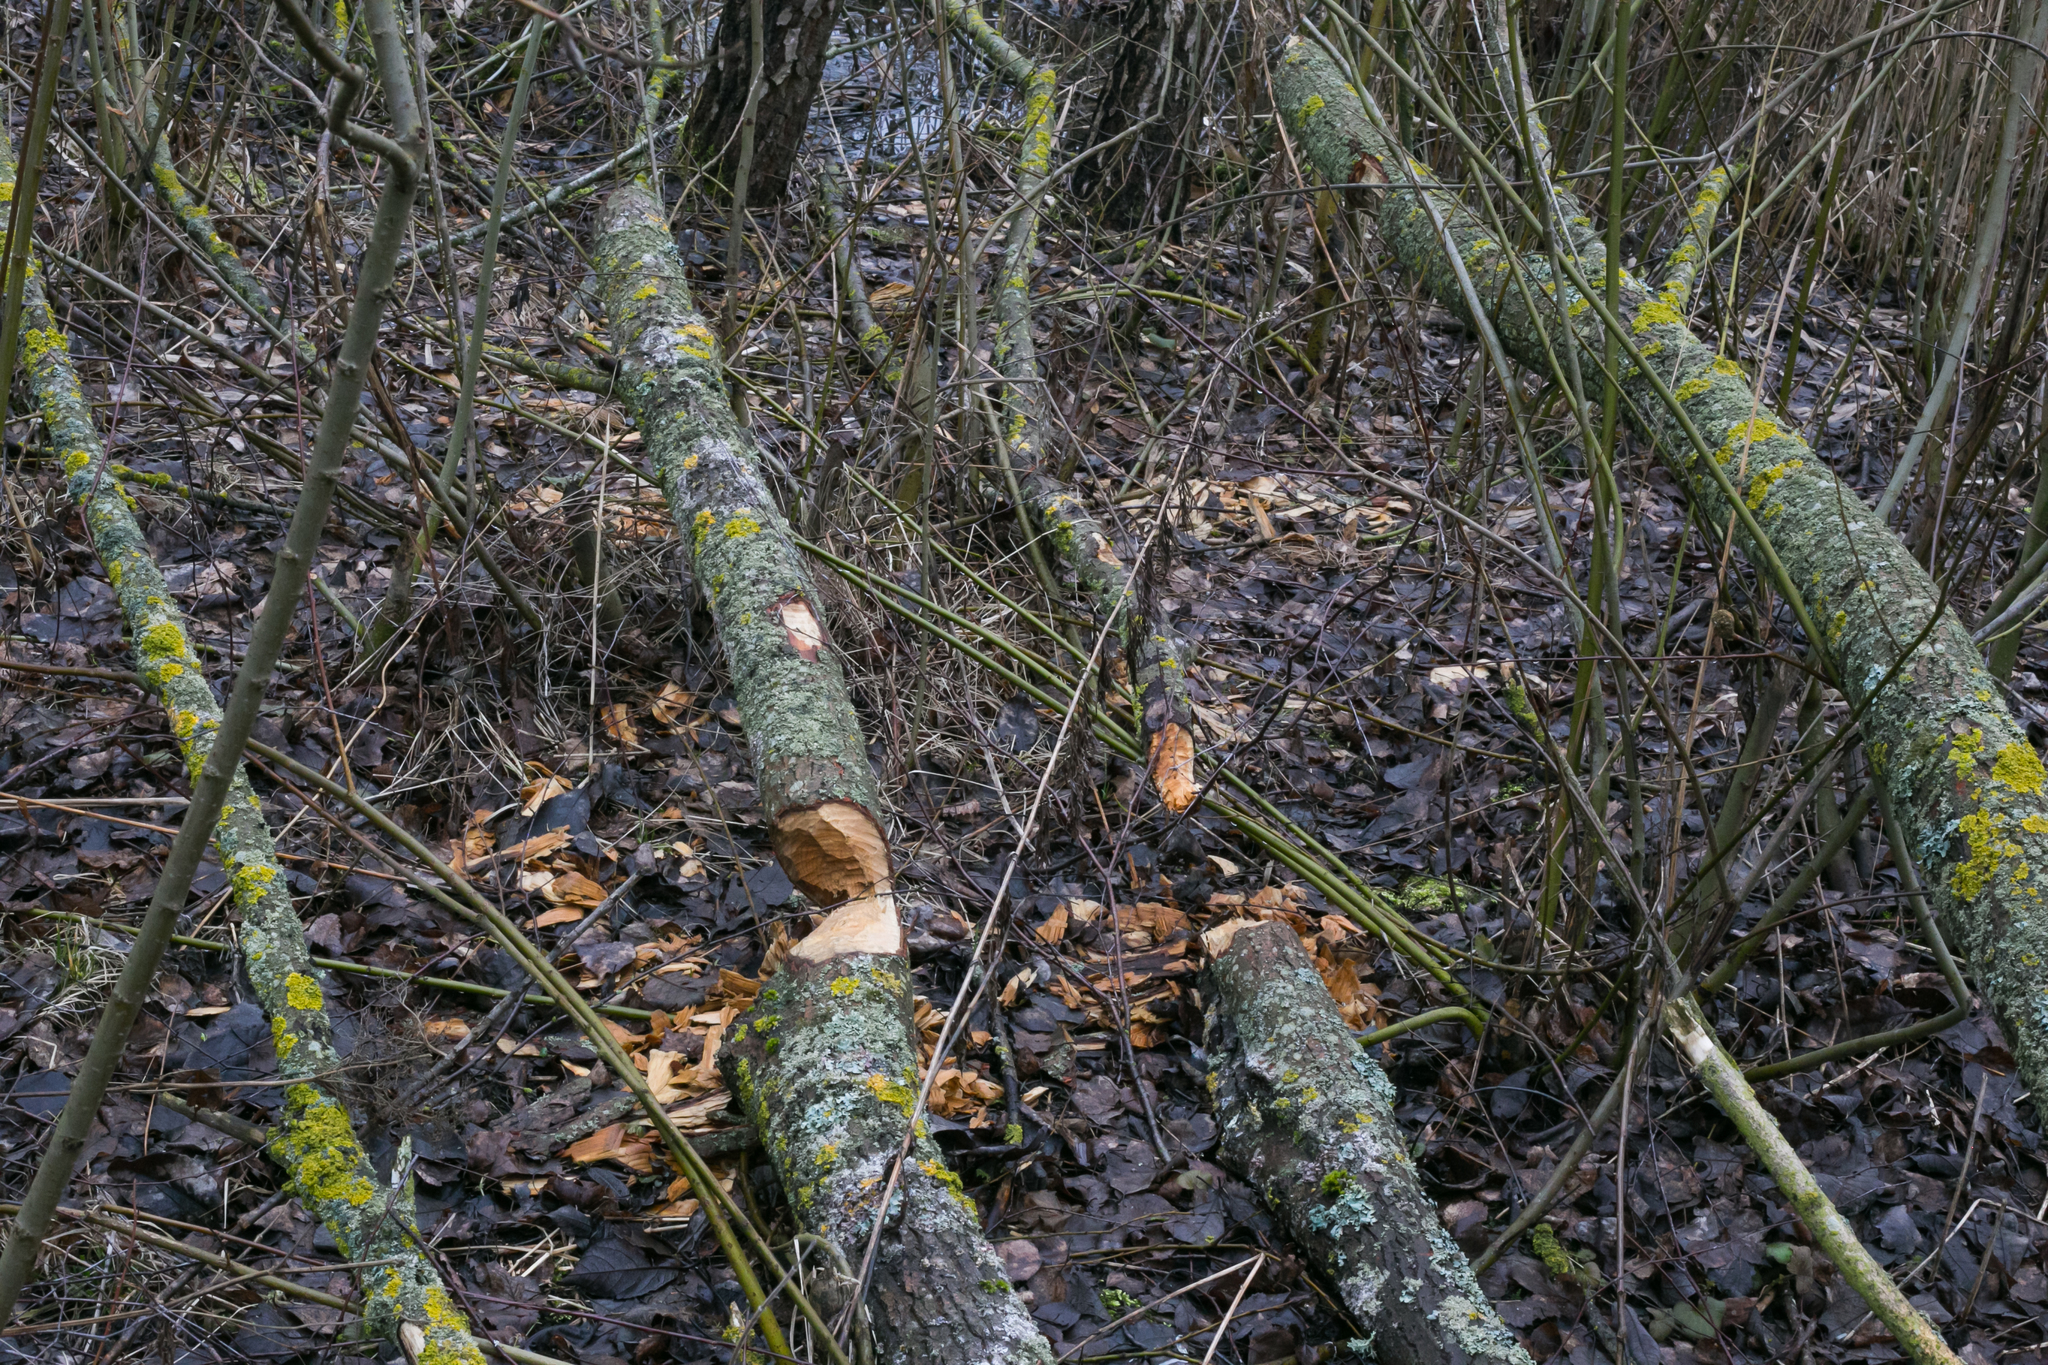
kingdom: Animalia
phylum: Chordata
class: Mammalia
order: Rodentia
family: Castoridae
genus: Castor
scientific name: Castor fiber
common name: Eurasian beaver
